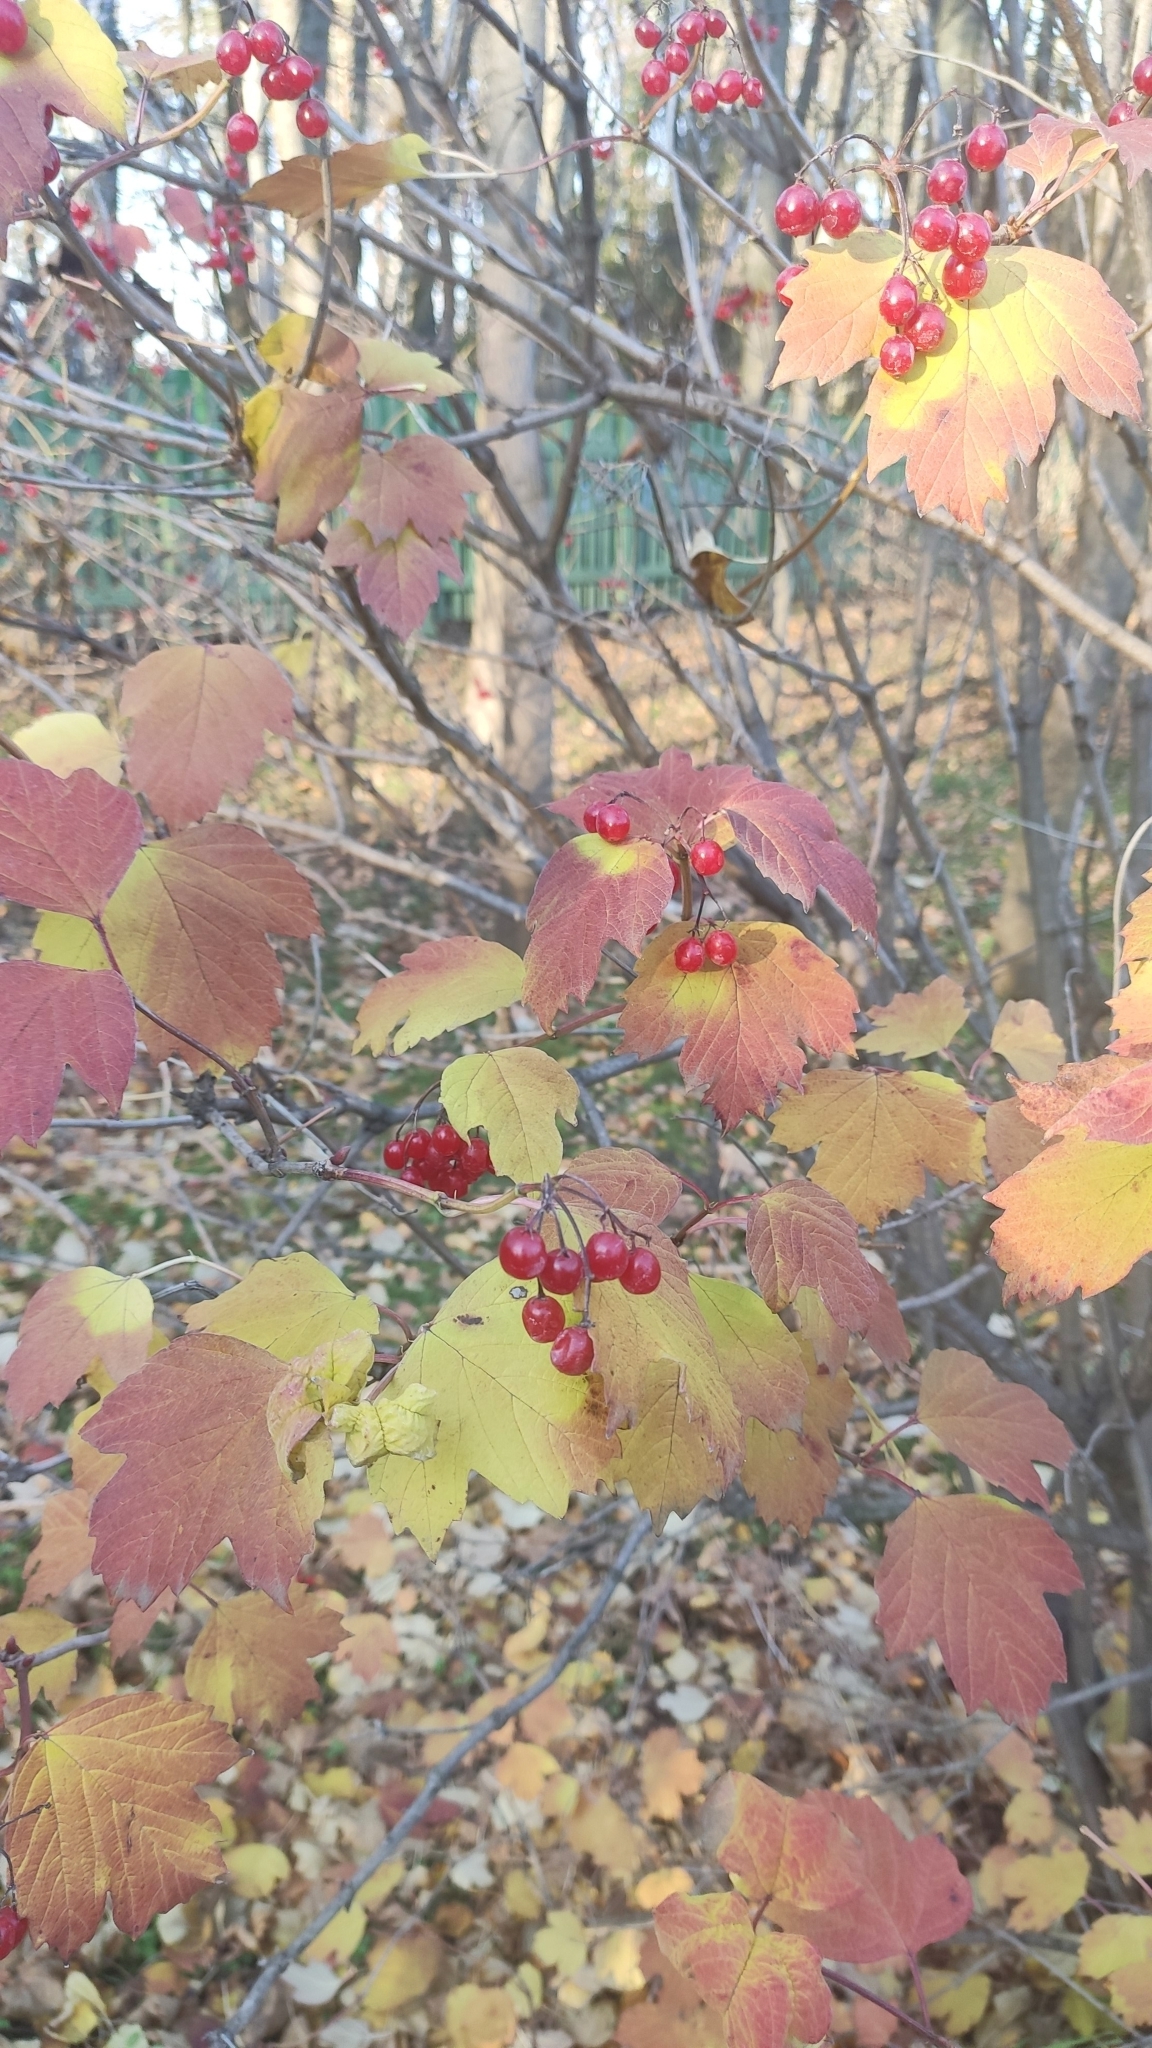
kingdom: Plantae
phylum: Tracheophyta
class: Magnoliopsida
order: Dipsacales
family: Viburnaceae
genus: Viburnum
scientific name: Viburnum opulus
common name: Guelder-rose
